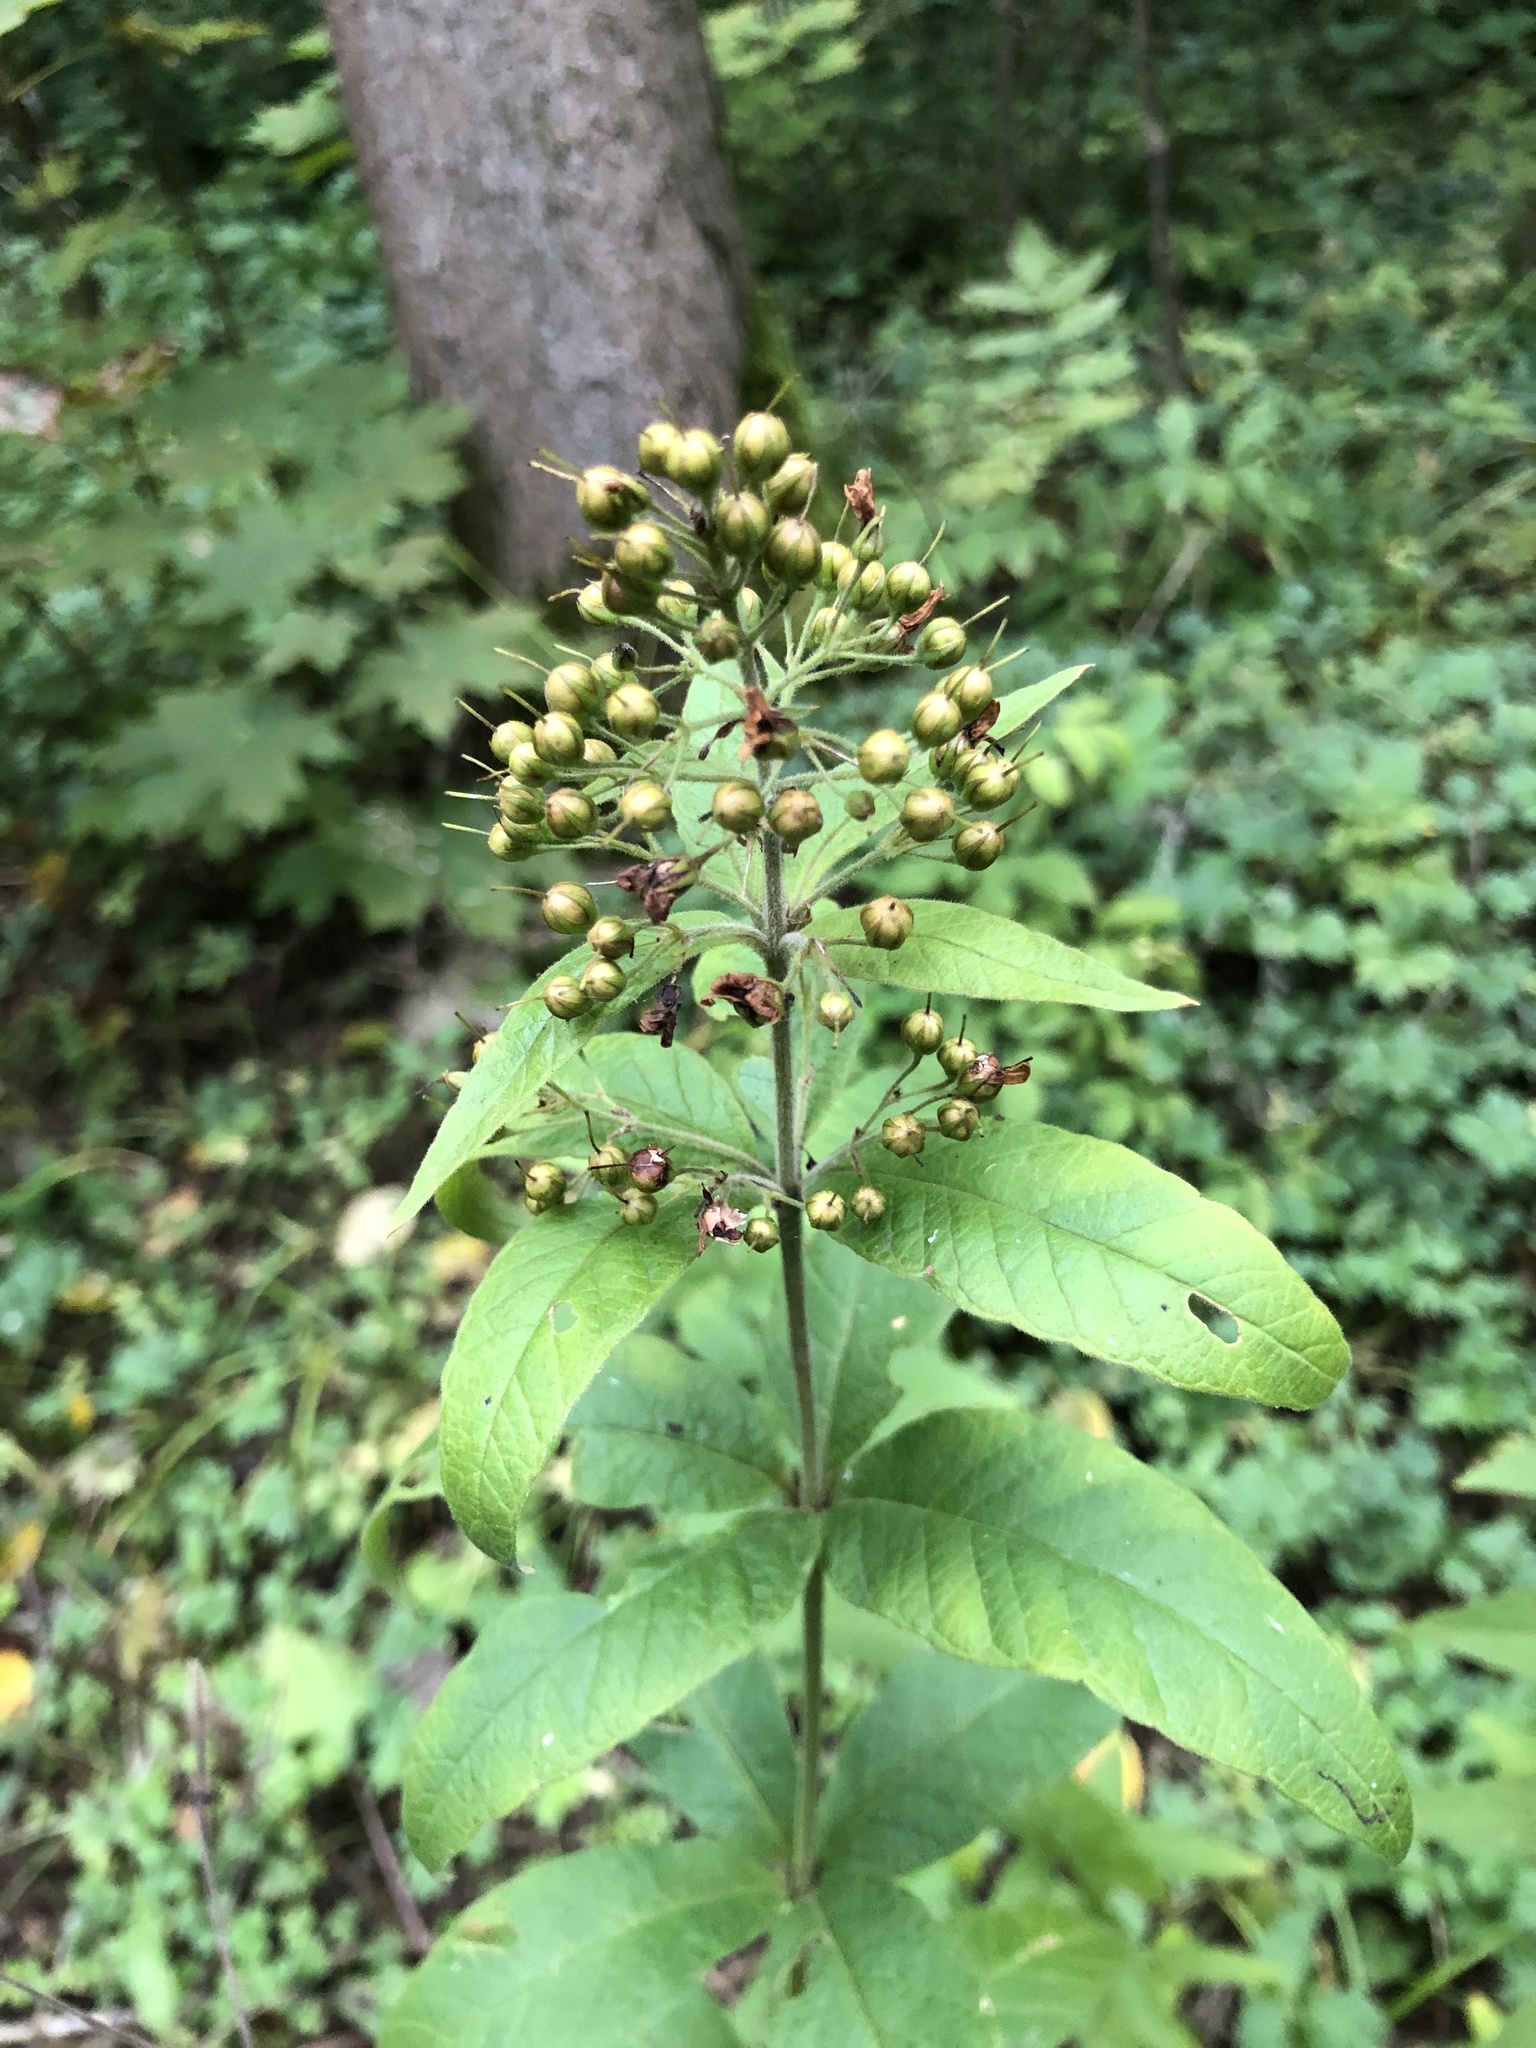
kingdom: Plantae
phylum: Tracheophyta
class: Magnoliopsida
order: Ericales
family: Primulaceae
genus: Lysimachia
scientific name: Lysimachia vulgaris
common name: Yellow loosestrife
